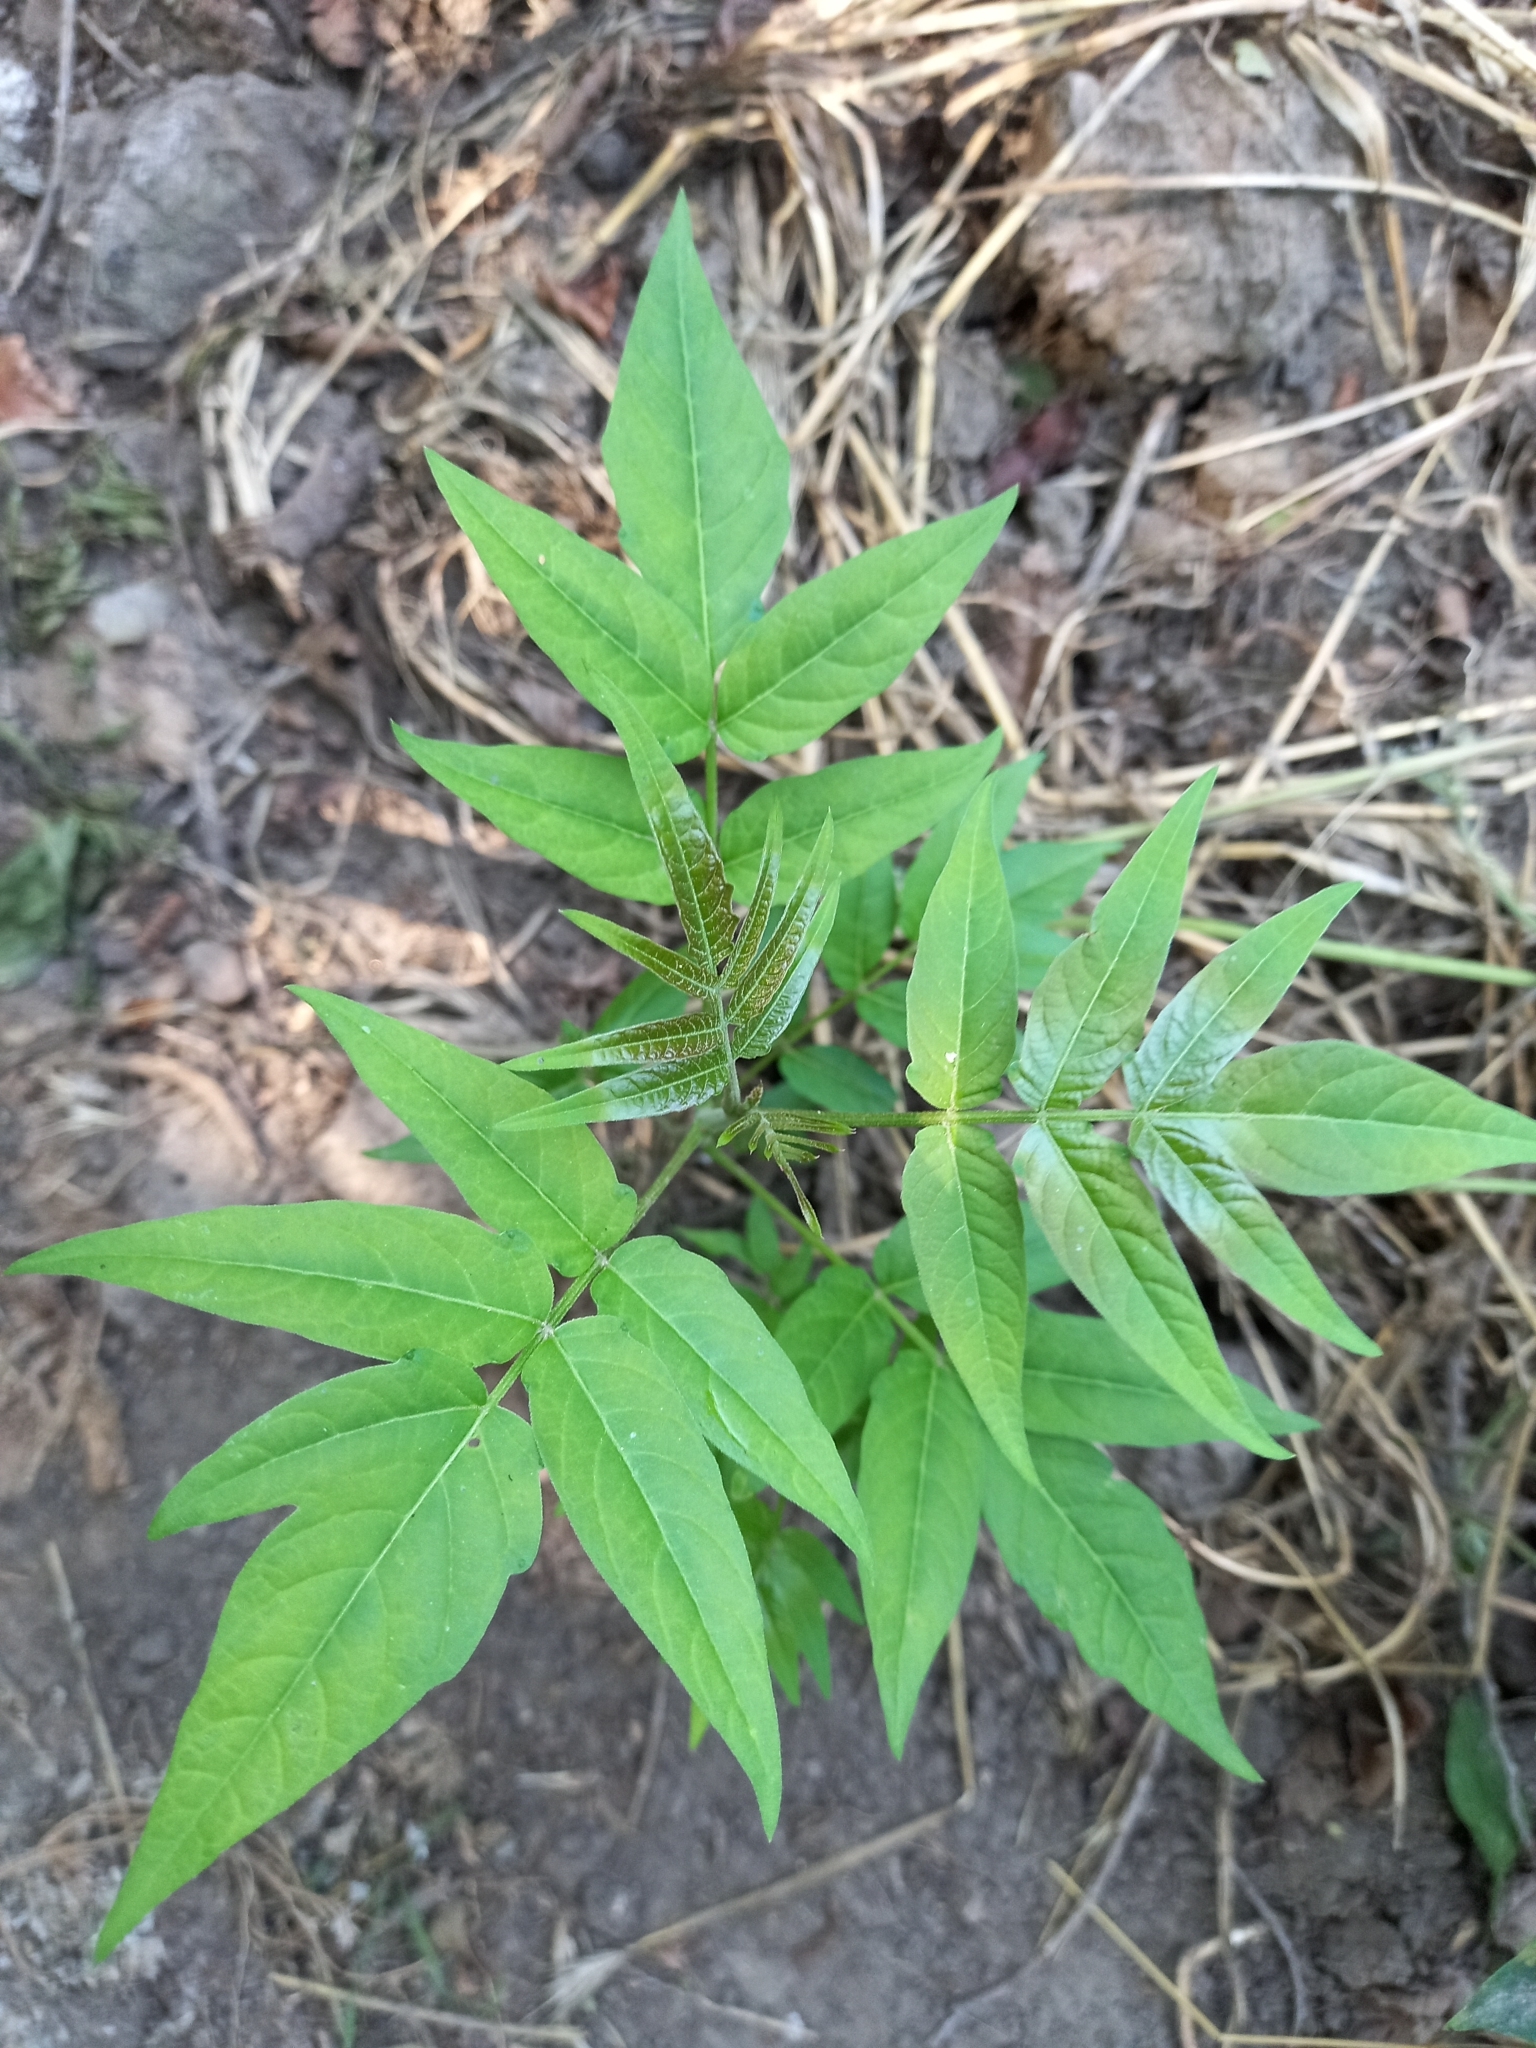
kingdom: Plantae
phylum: Tracheophyta
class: Magnoliopsida
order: Sapindales
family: Simaroubaceae
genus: Ailanthus
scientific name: Ailanthus altissima
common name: Tree-of-heaven
